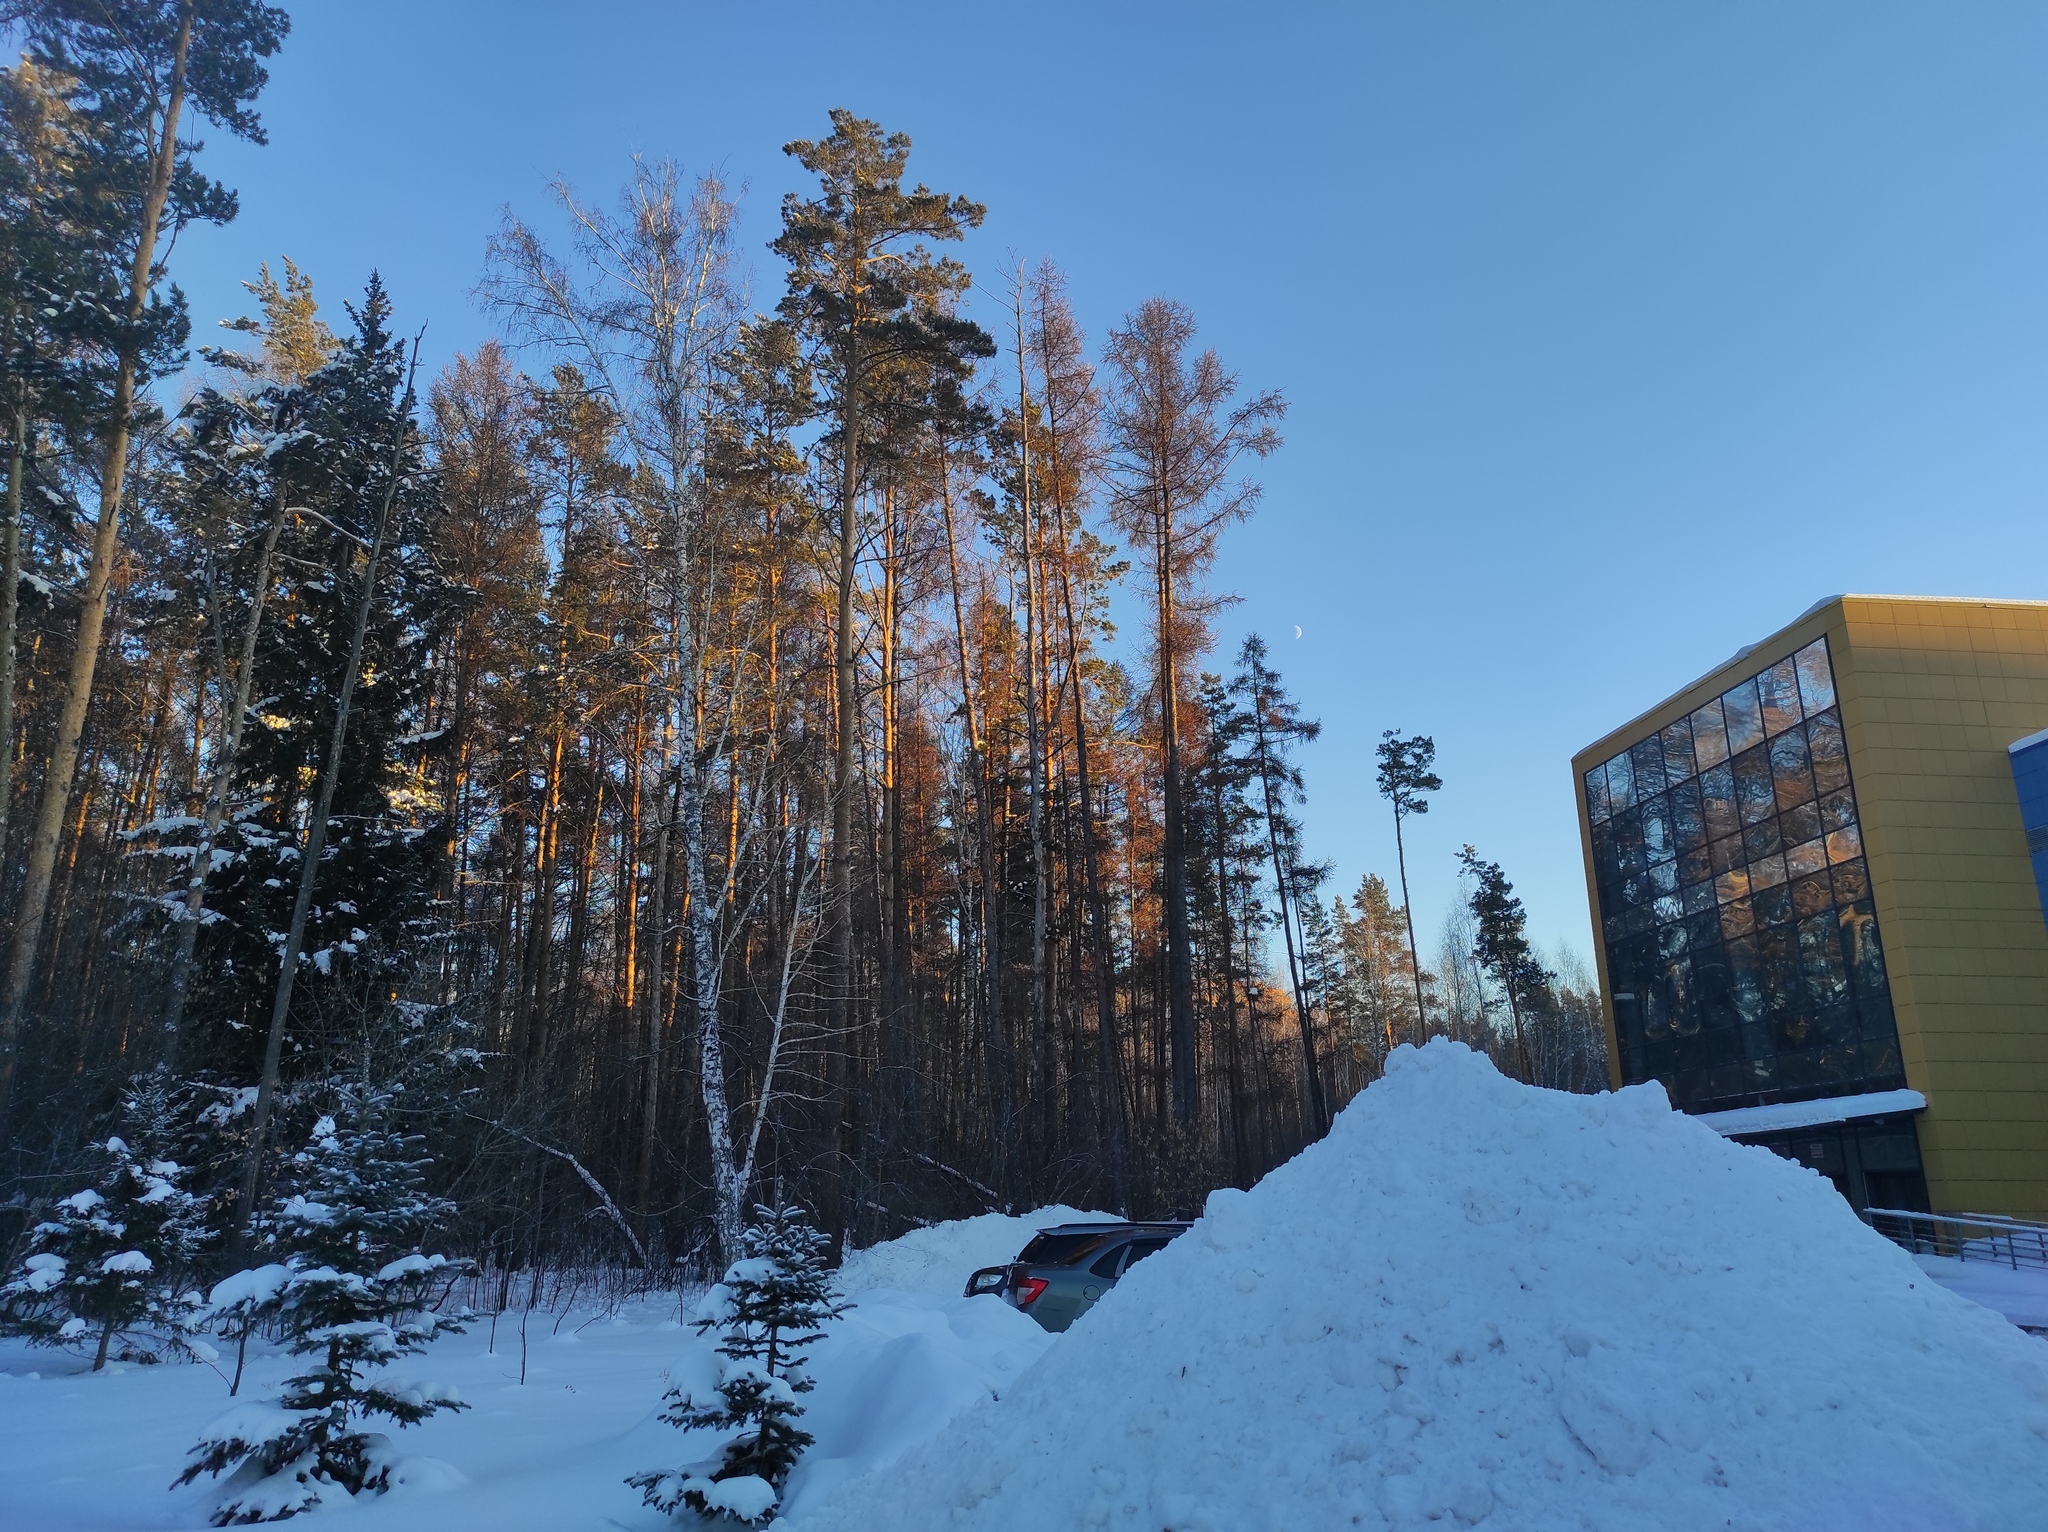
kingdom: Plantae
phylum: Tracheophyta
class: Pinopsida
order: Pinales
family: Pinaceae
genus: Pinus
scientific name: Pinus sylvestris
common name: Scots pine
